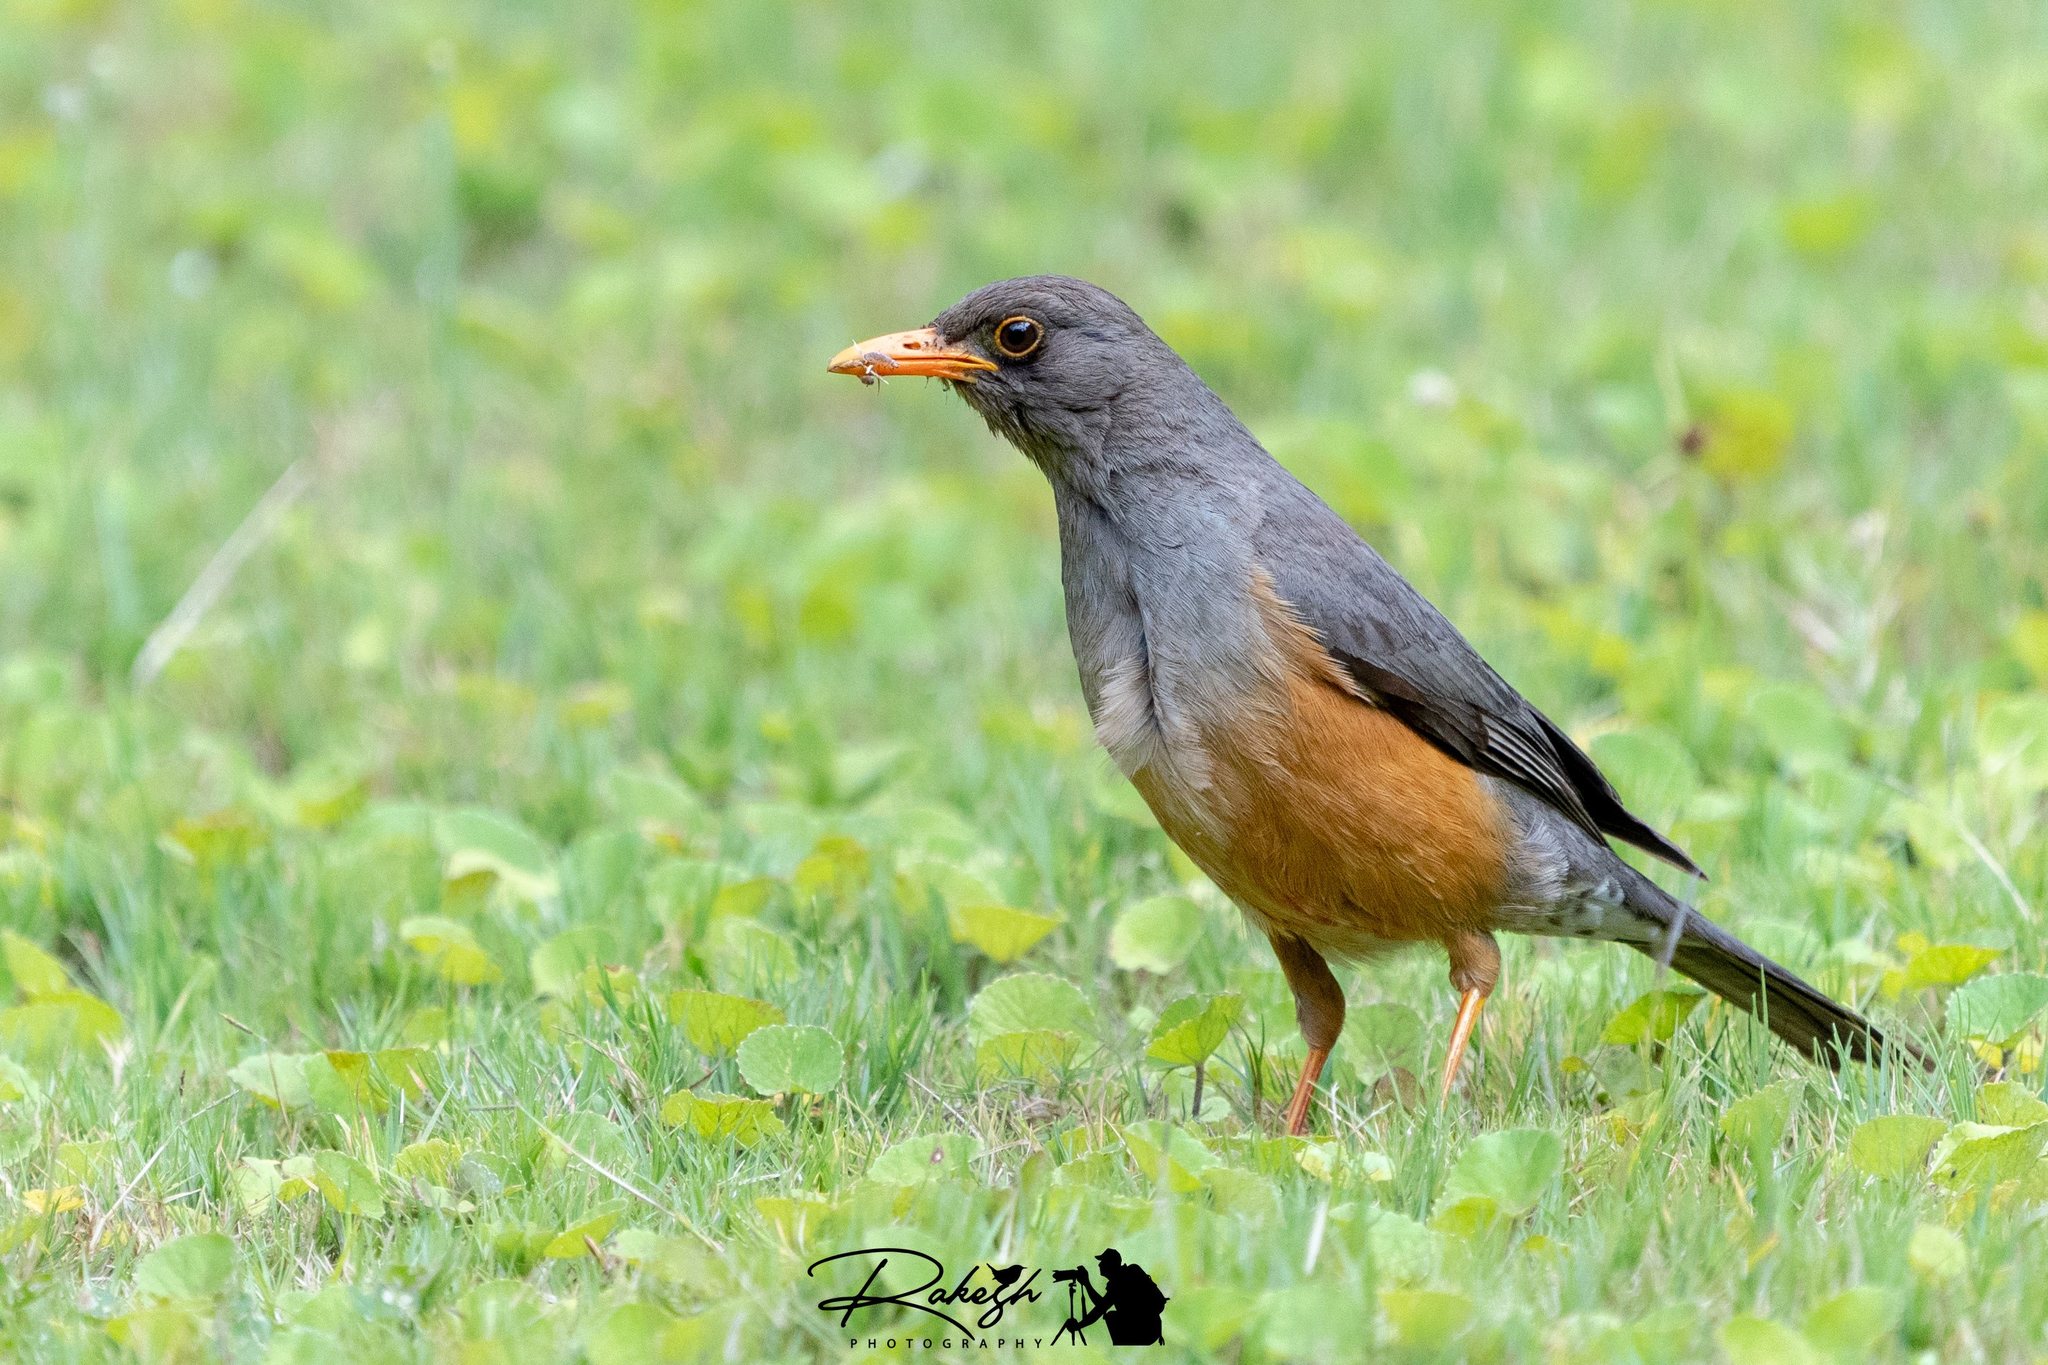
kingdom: Animalia
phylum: Chordata
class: Aves
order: Passeriformes
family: Turdidae
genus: Turdus
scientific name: Turdus abyssinicus
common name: Abyssinian thrush
